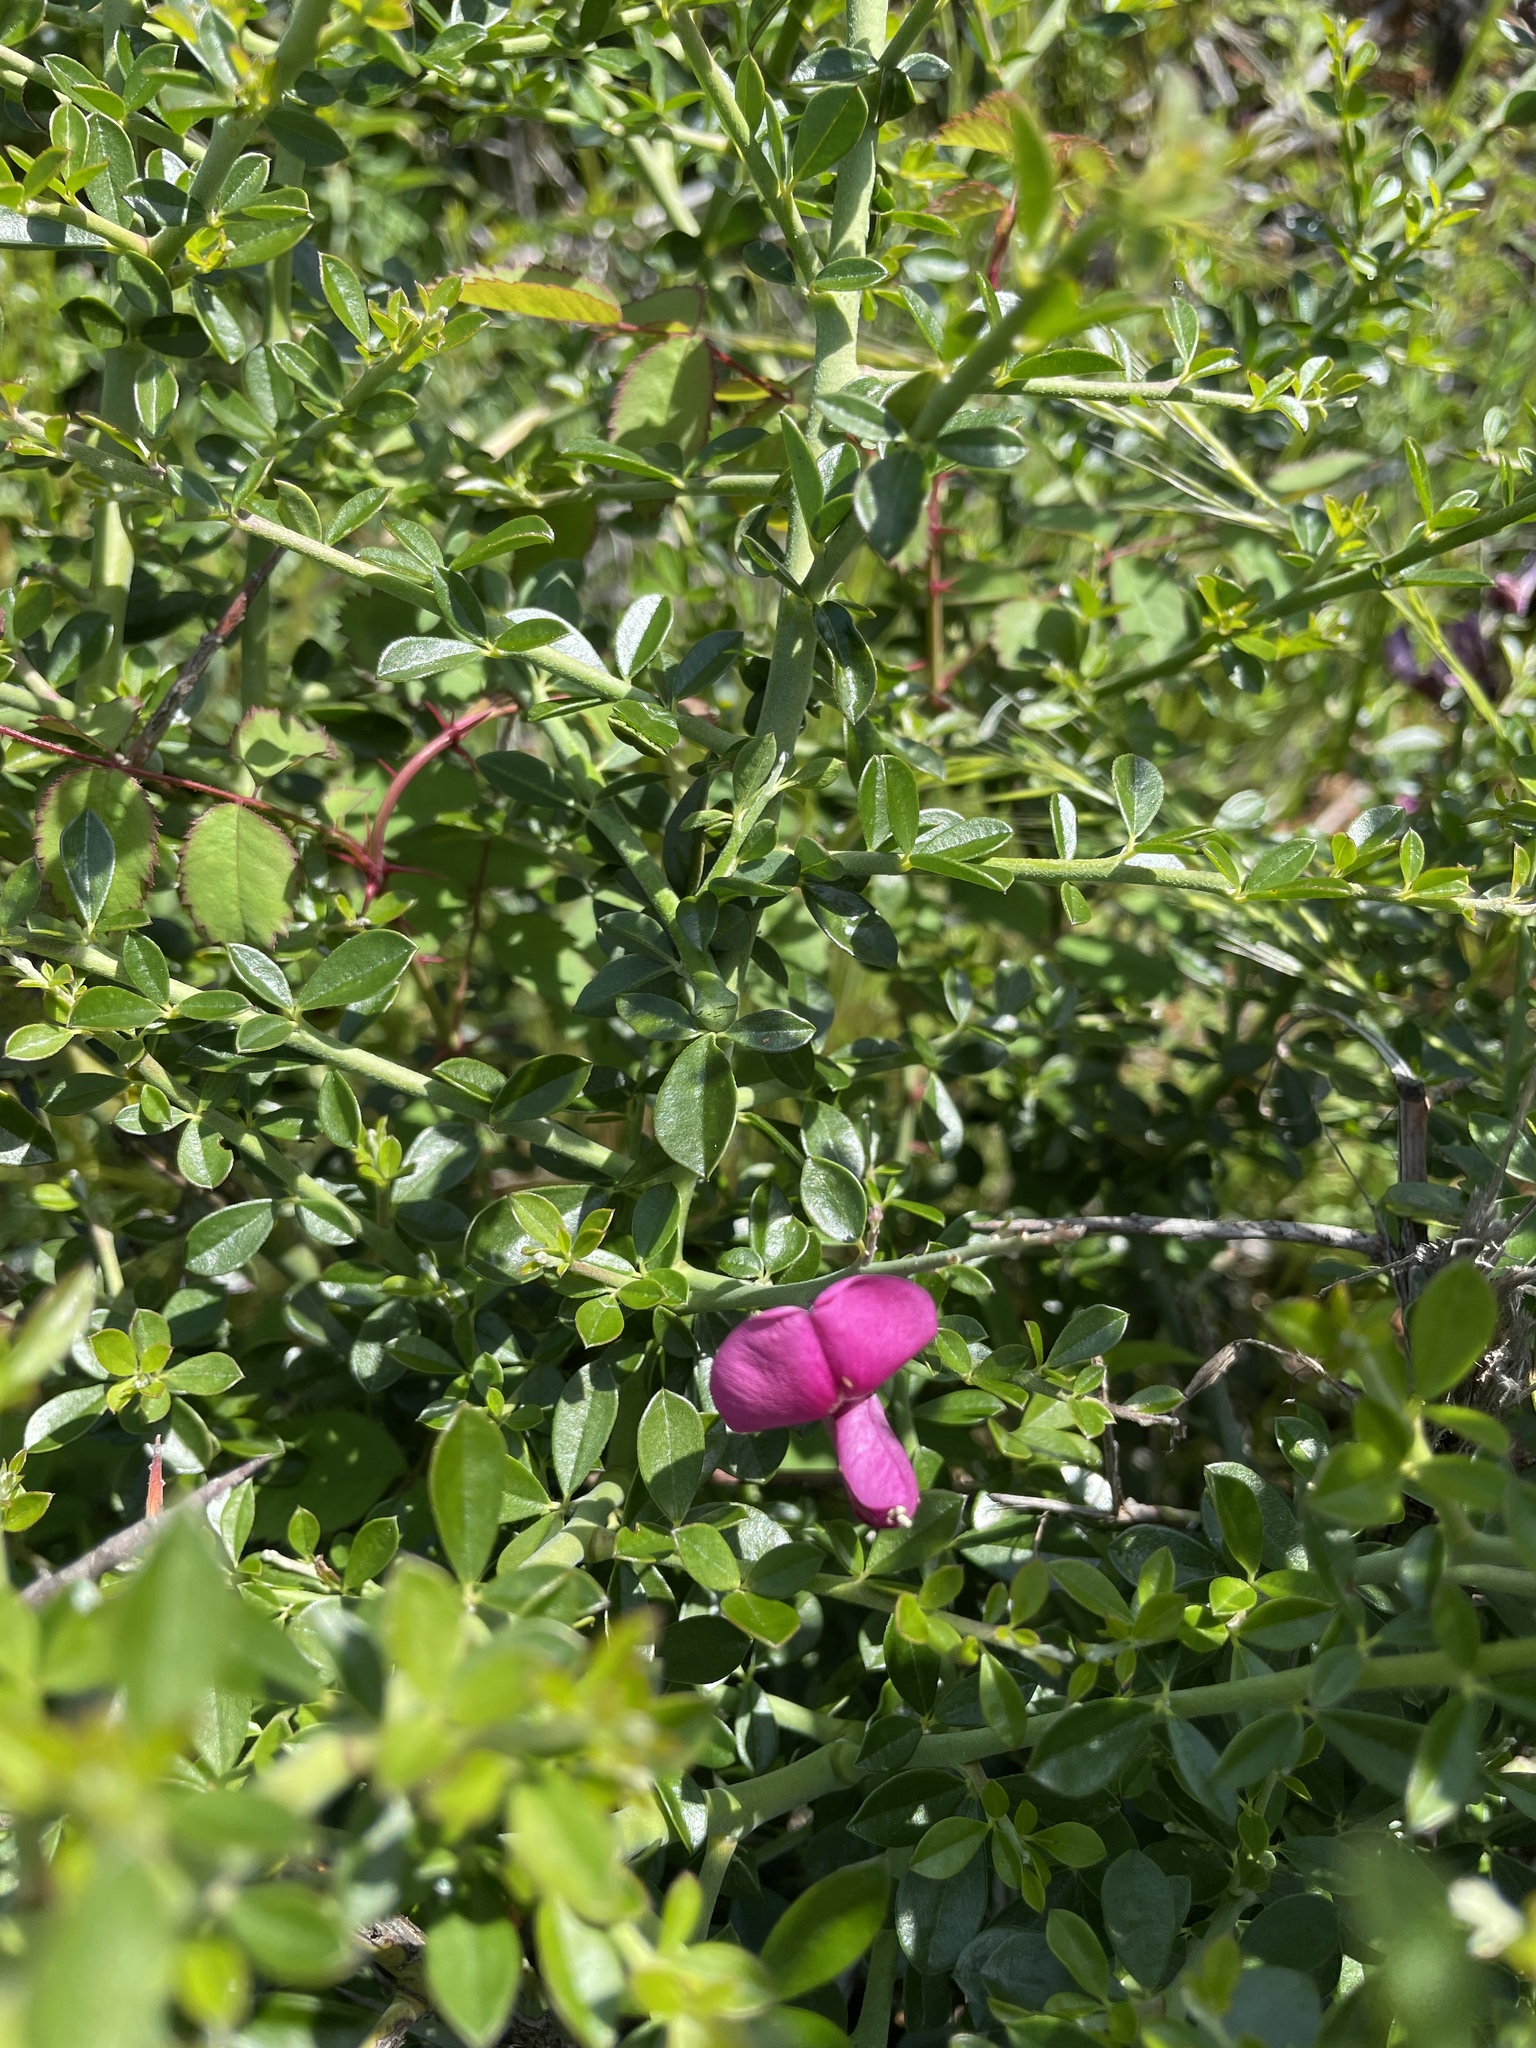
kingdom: Plantae
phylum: Tracheophyta
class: Magnoliopsida
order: Fabales
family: Fabaceae
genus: Pickeringia
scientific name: Pickeringia montana
